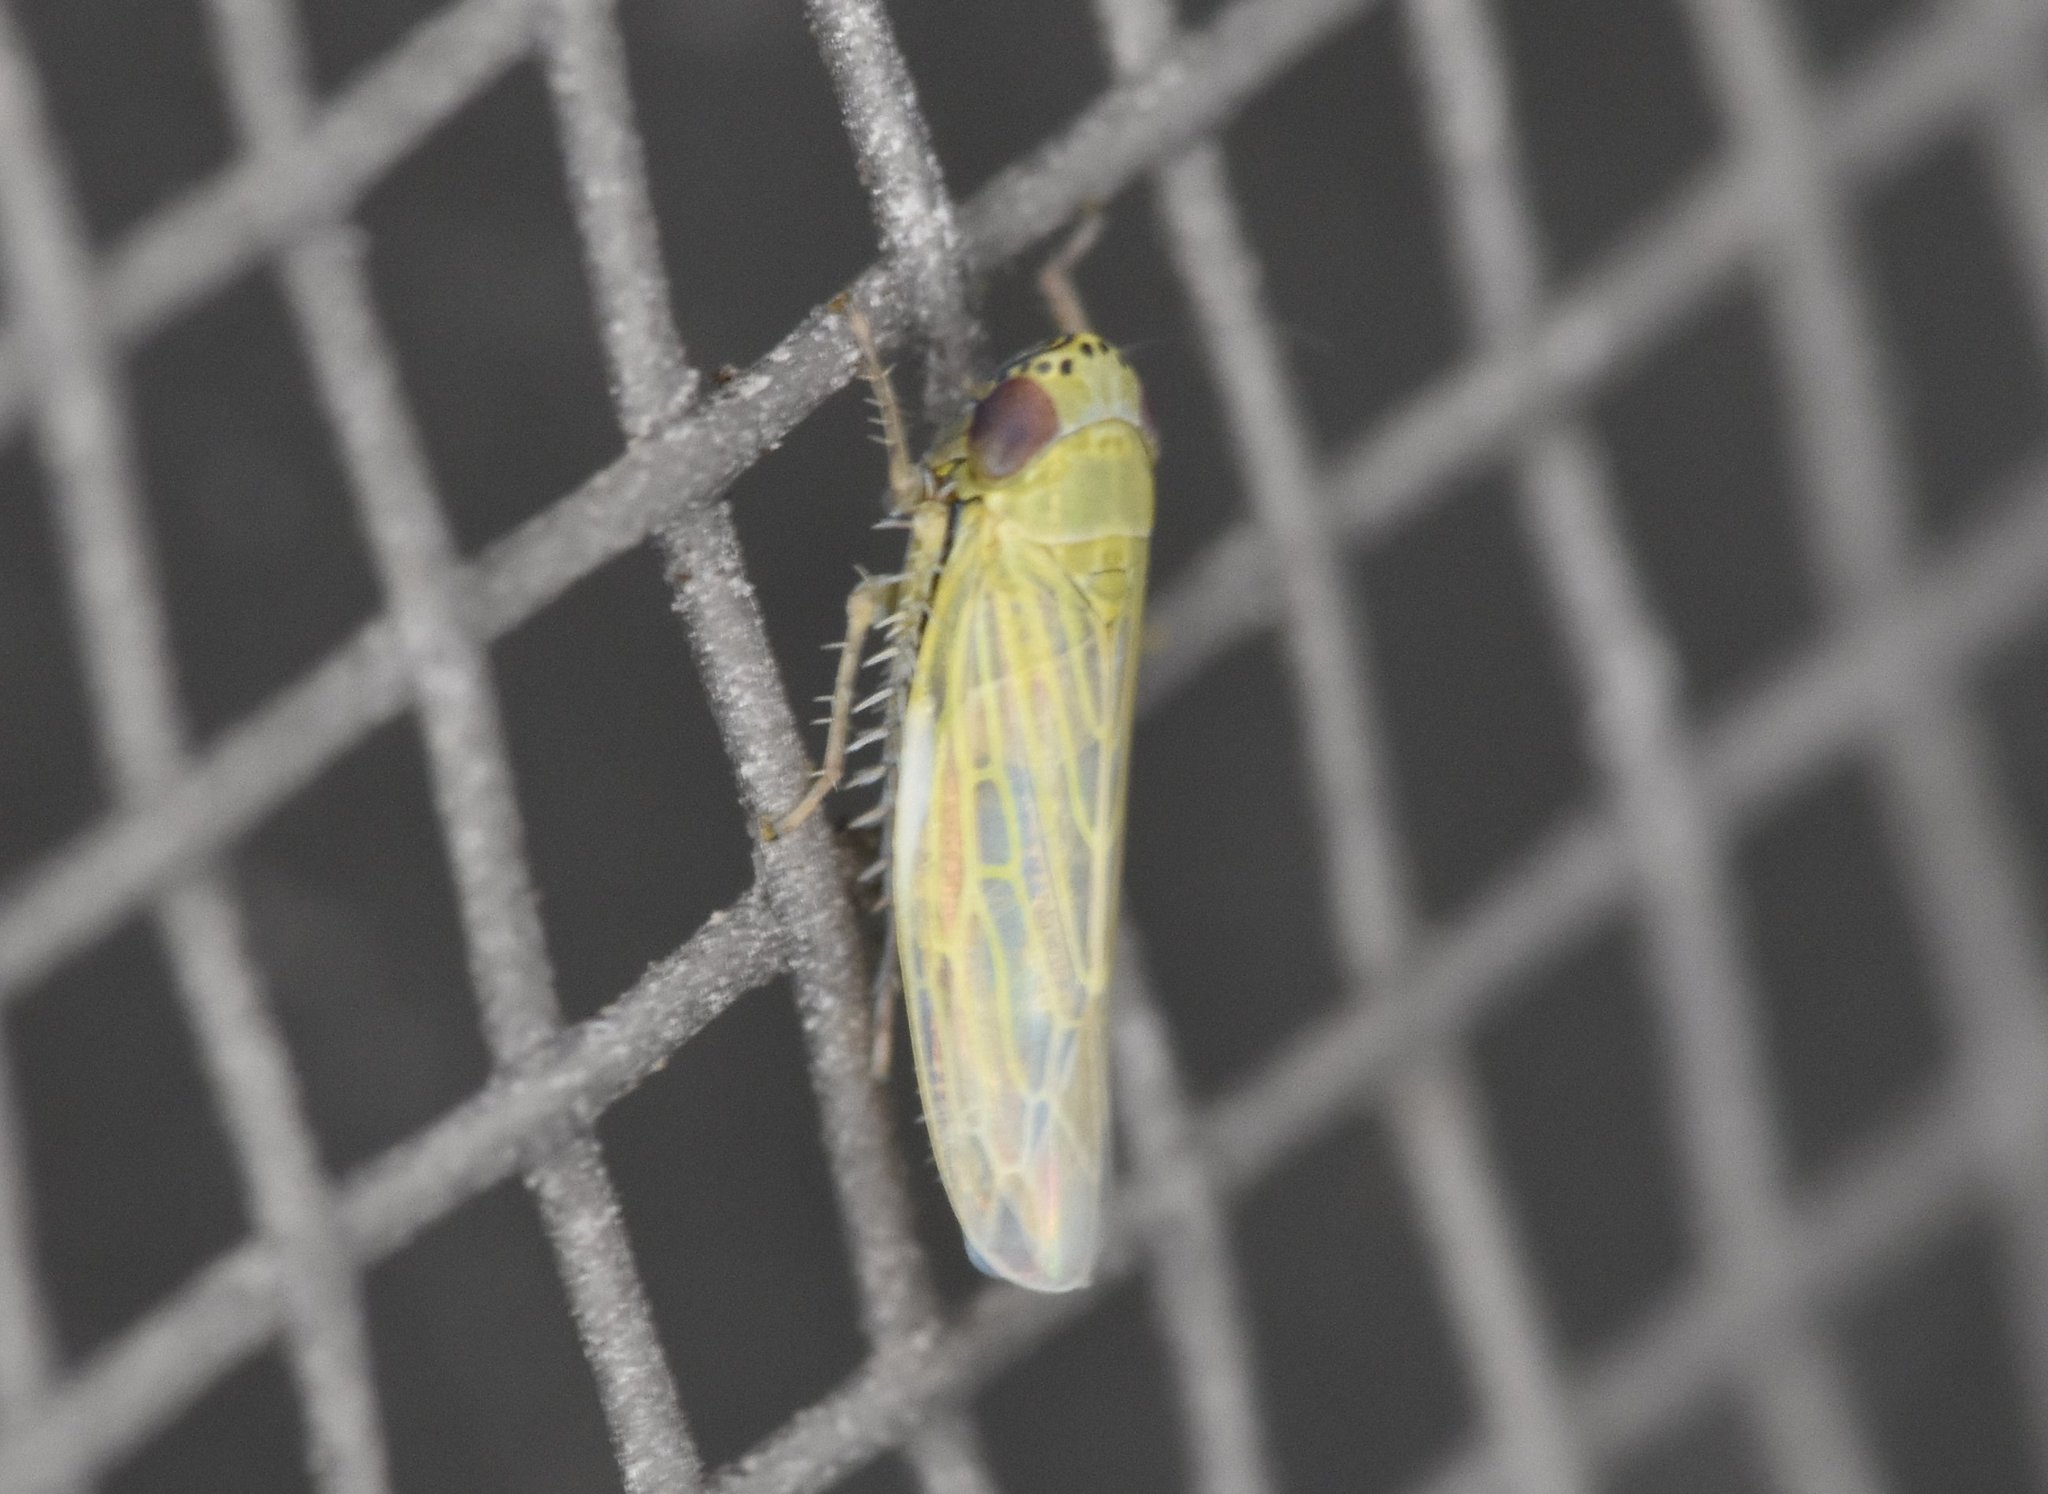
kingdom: Animalia
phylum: Arthropoda
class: Insecta
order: Hemiptera
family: Cicadellidae
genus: Graminella
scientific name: Graminella nigrifrons
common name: Blackfaced leafhopper
